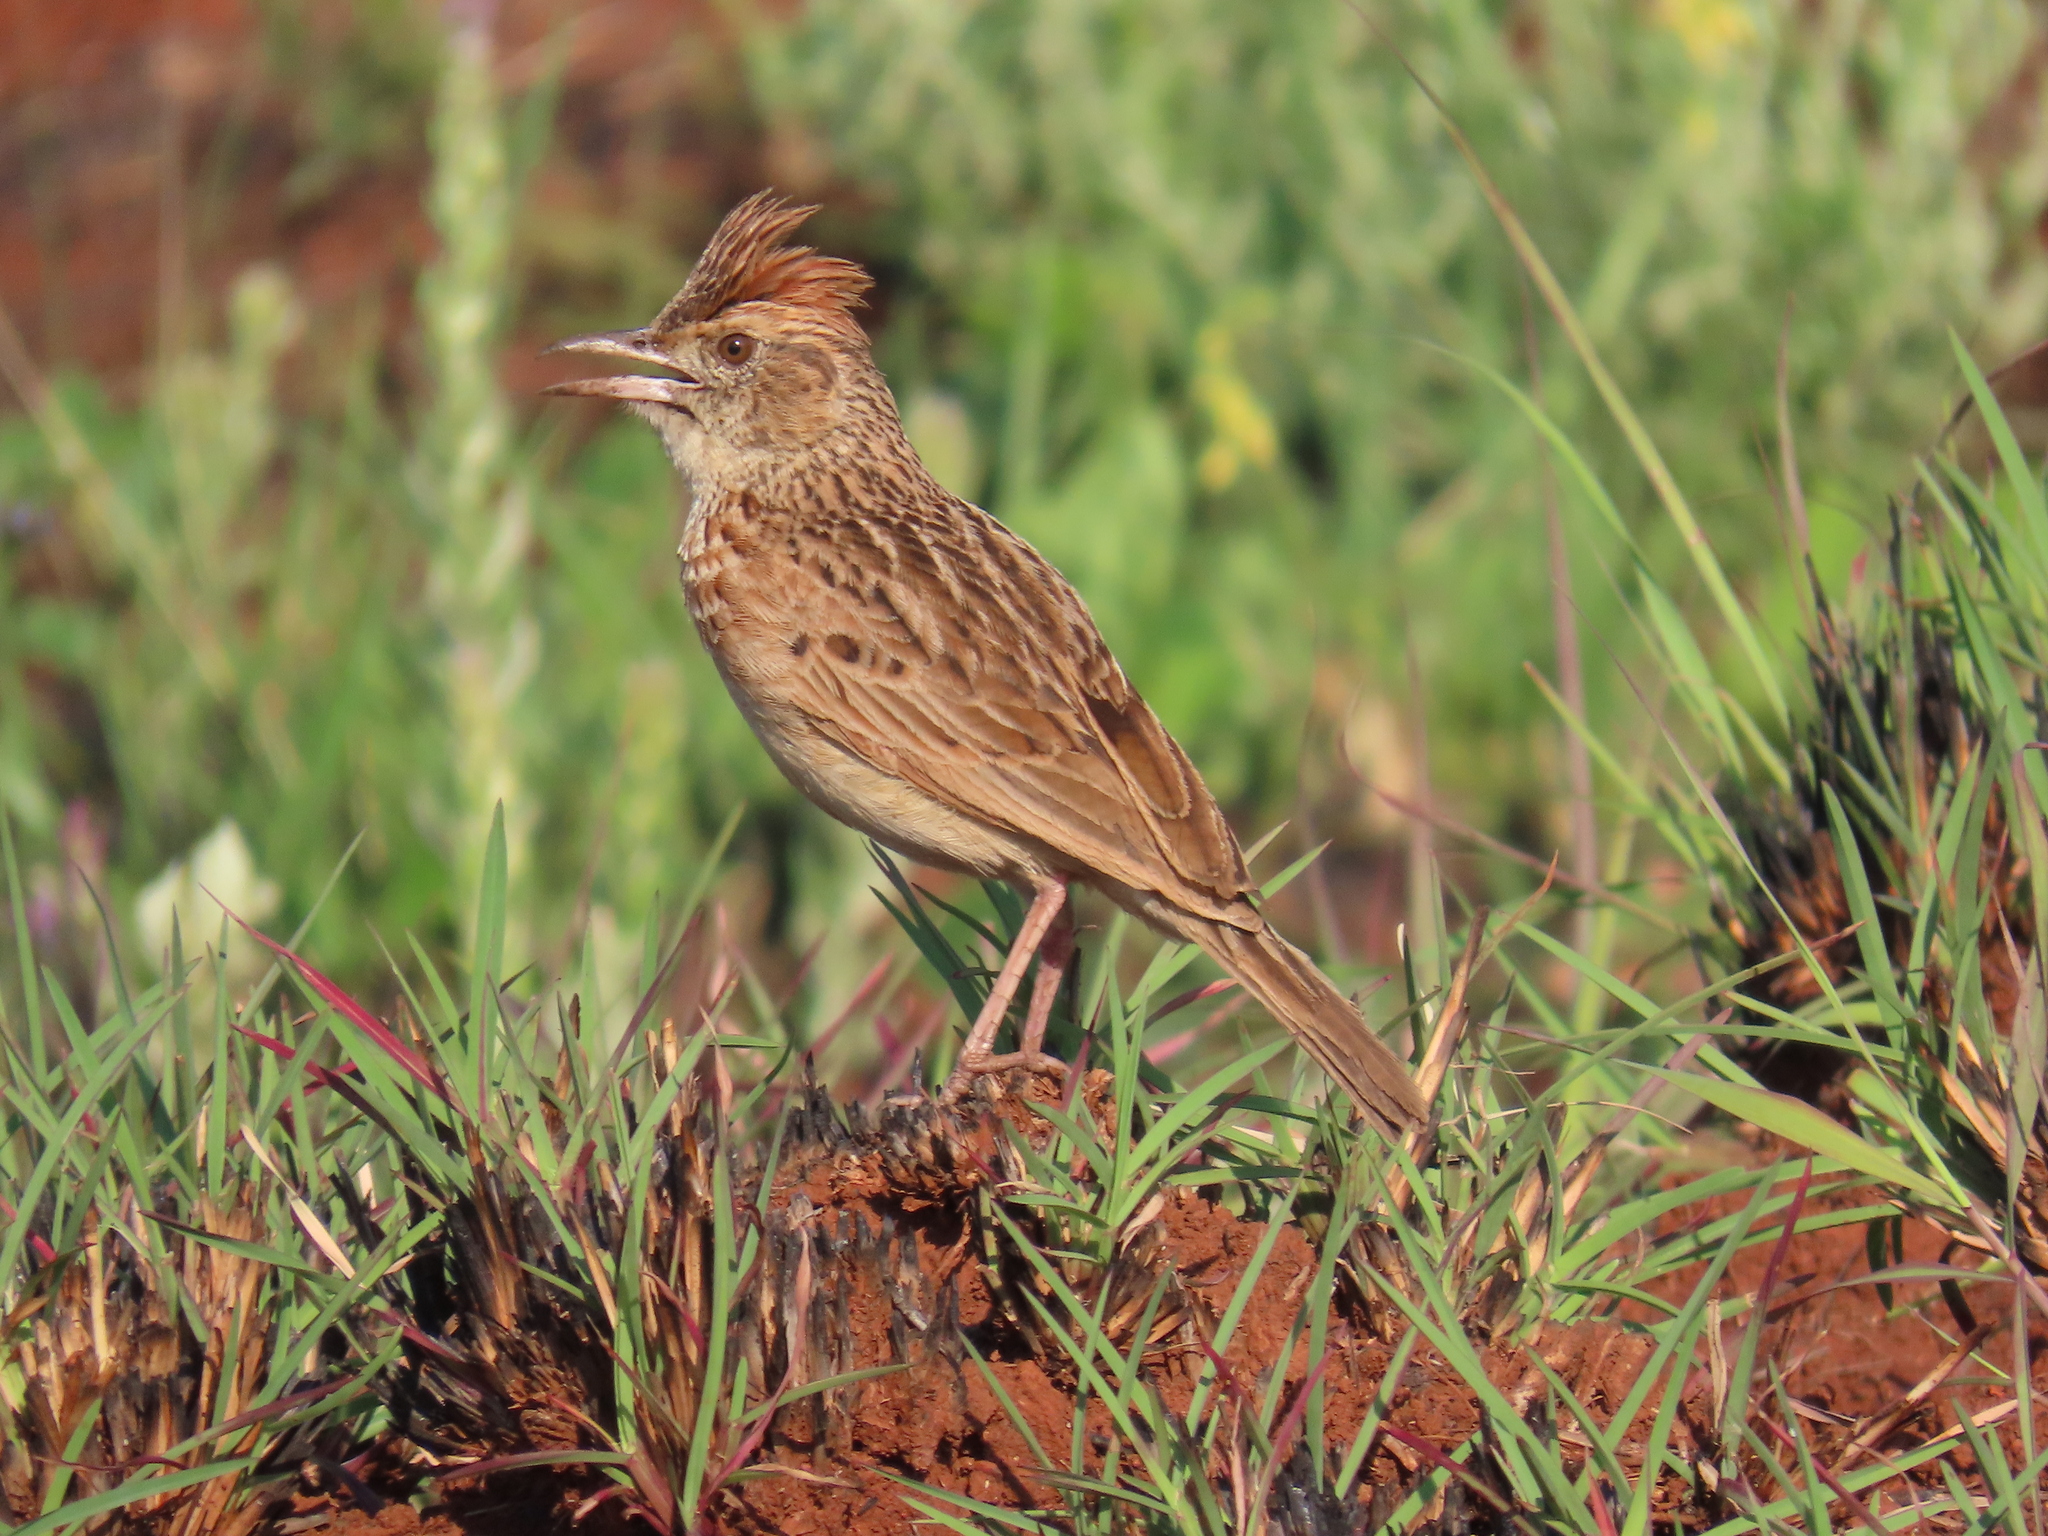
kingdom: Animalia
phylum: Chordata
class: Aves
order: Passeriformes
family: Alaudidae
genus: Mirafra
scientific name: Mirafra africana
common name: Rufous-naped lark
